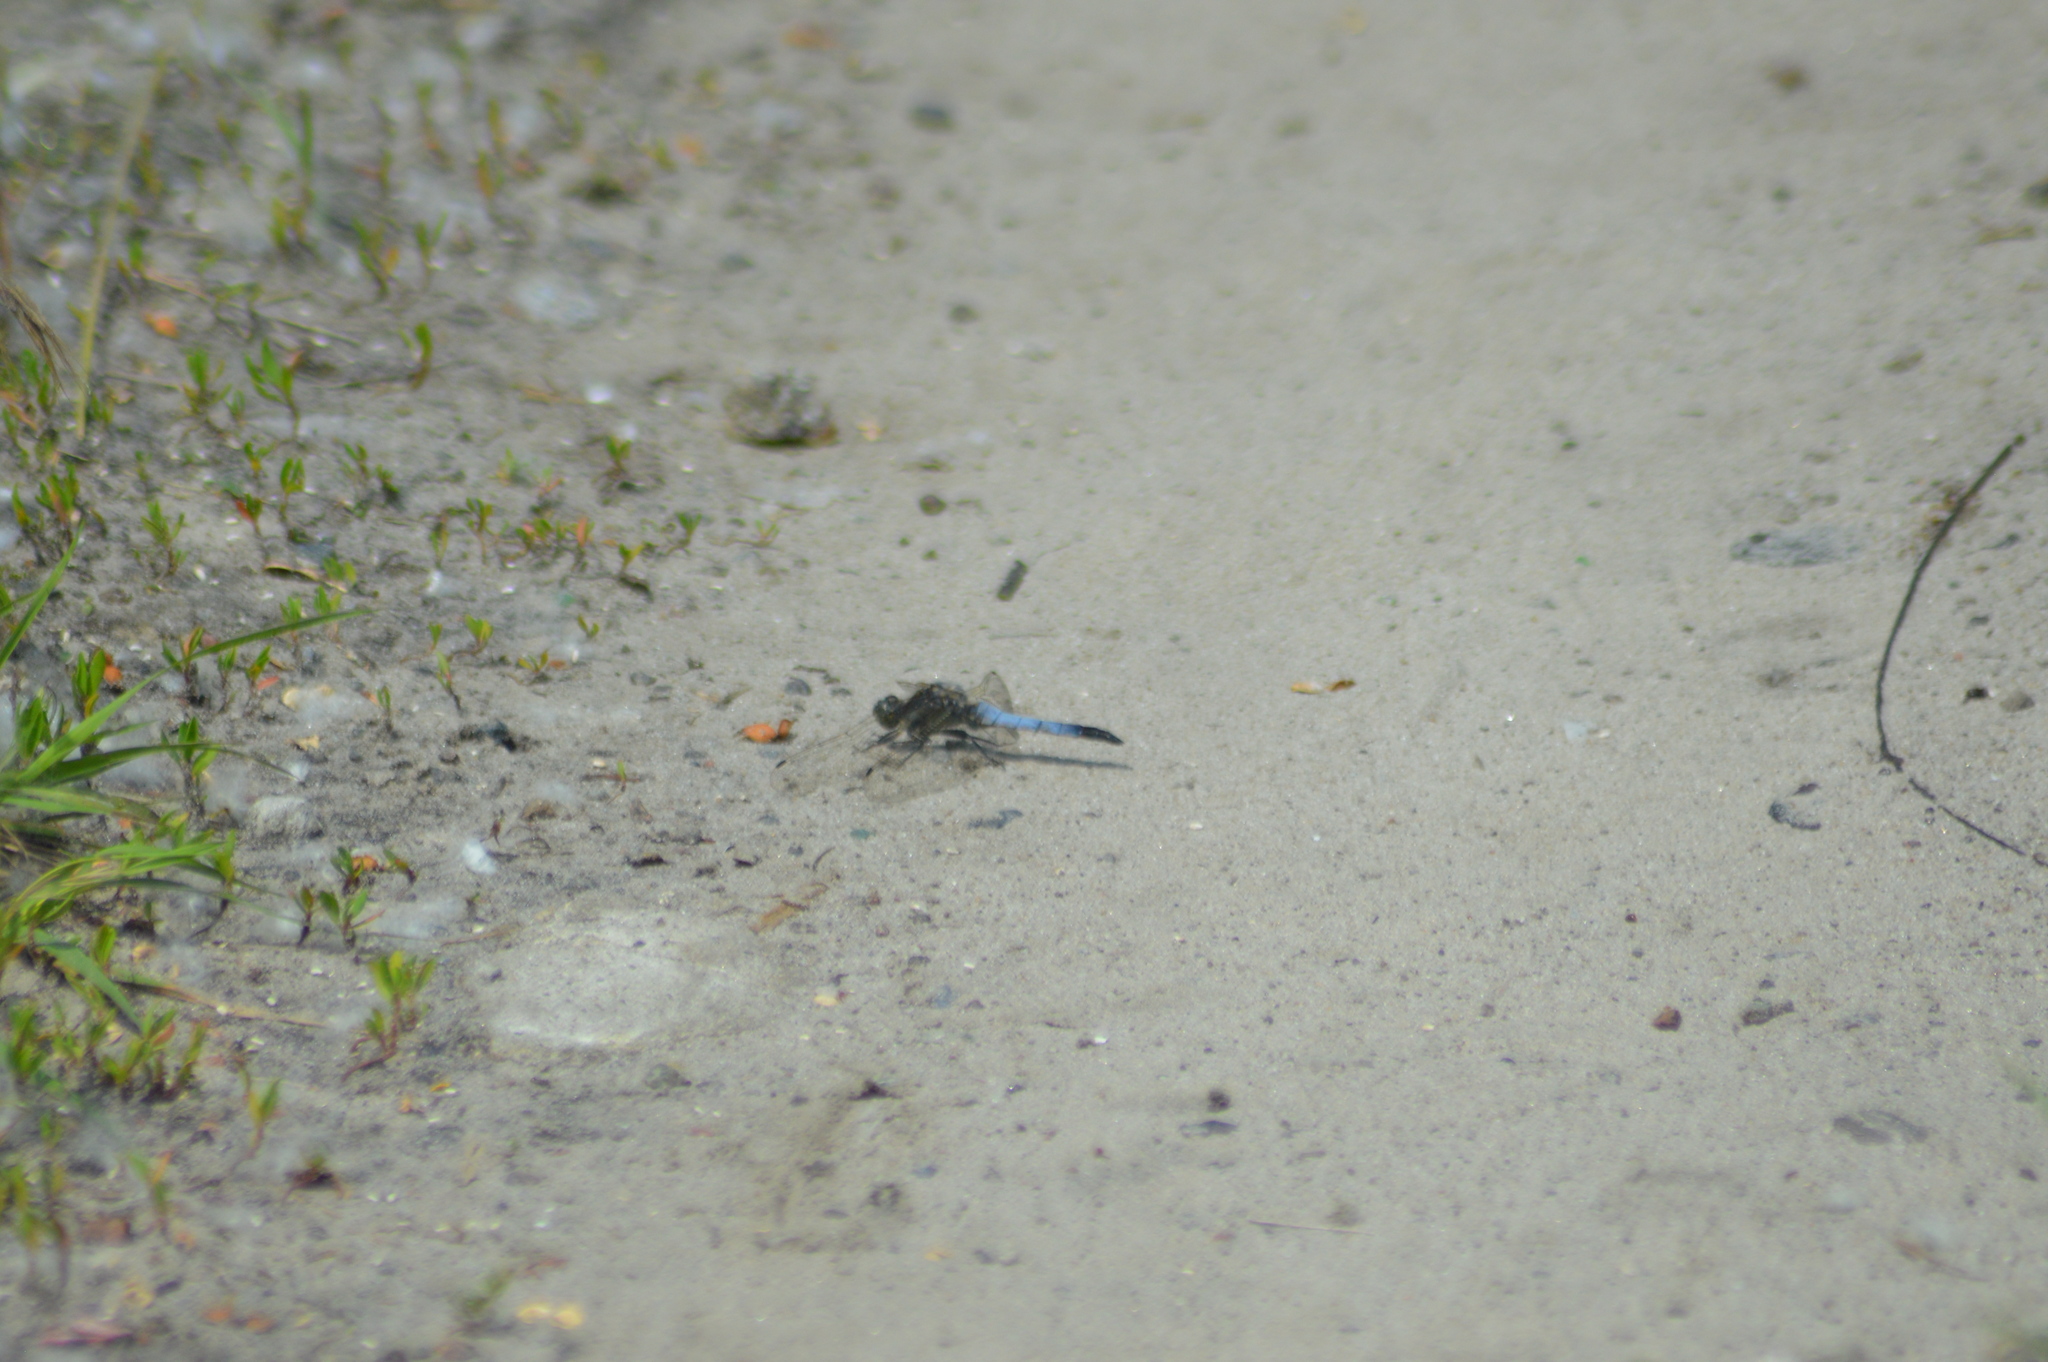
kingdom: Animalia
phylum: Arthropoda
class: Insecta
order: Odonata
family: Libellulidae
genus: Orthetrum
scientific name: Orthetrum cancellatum
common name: Black-tailed skimmer
